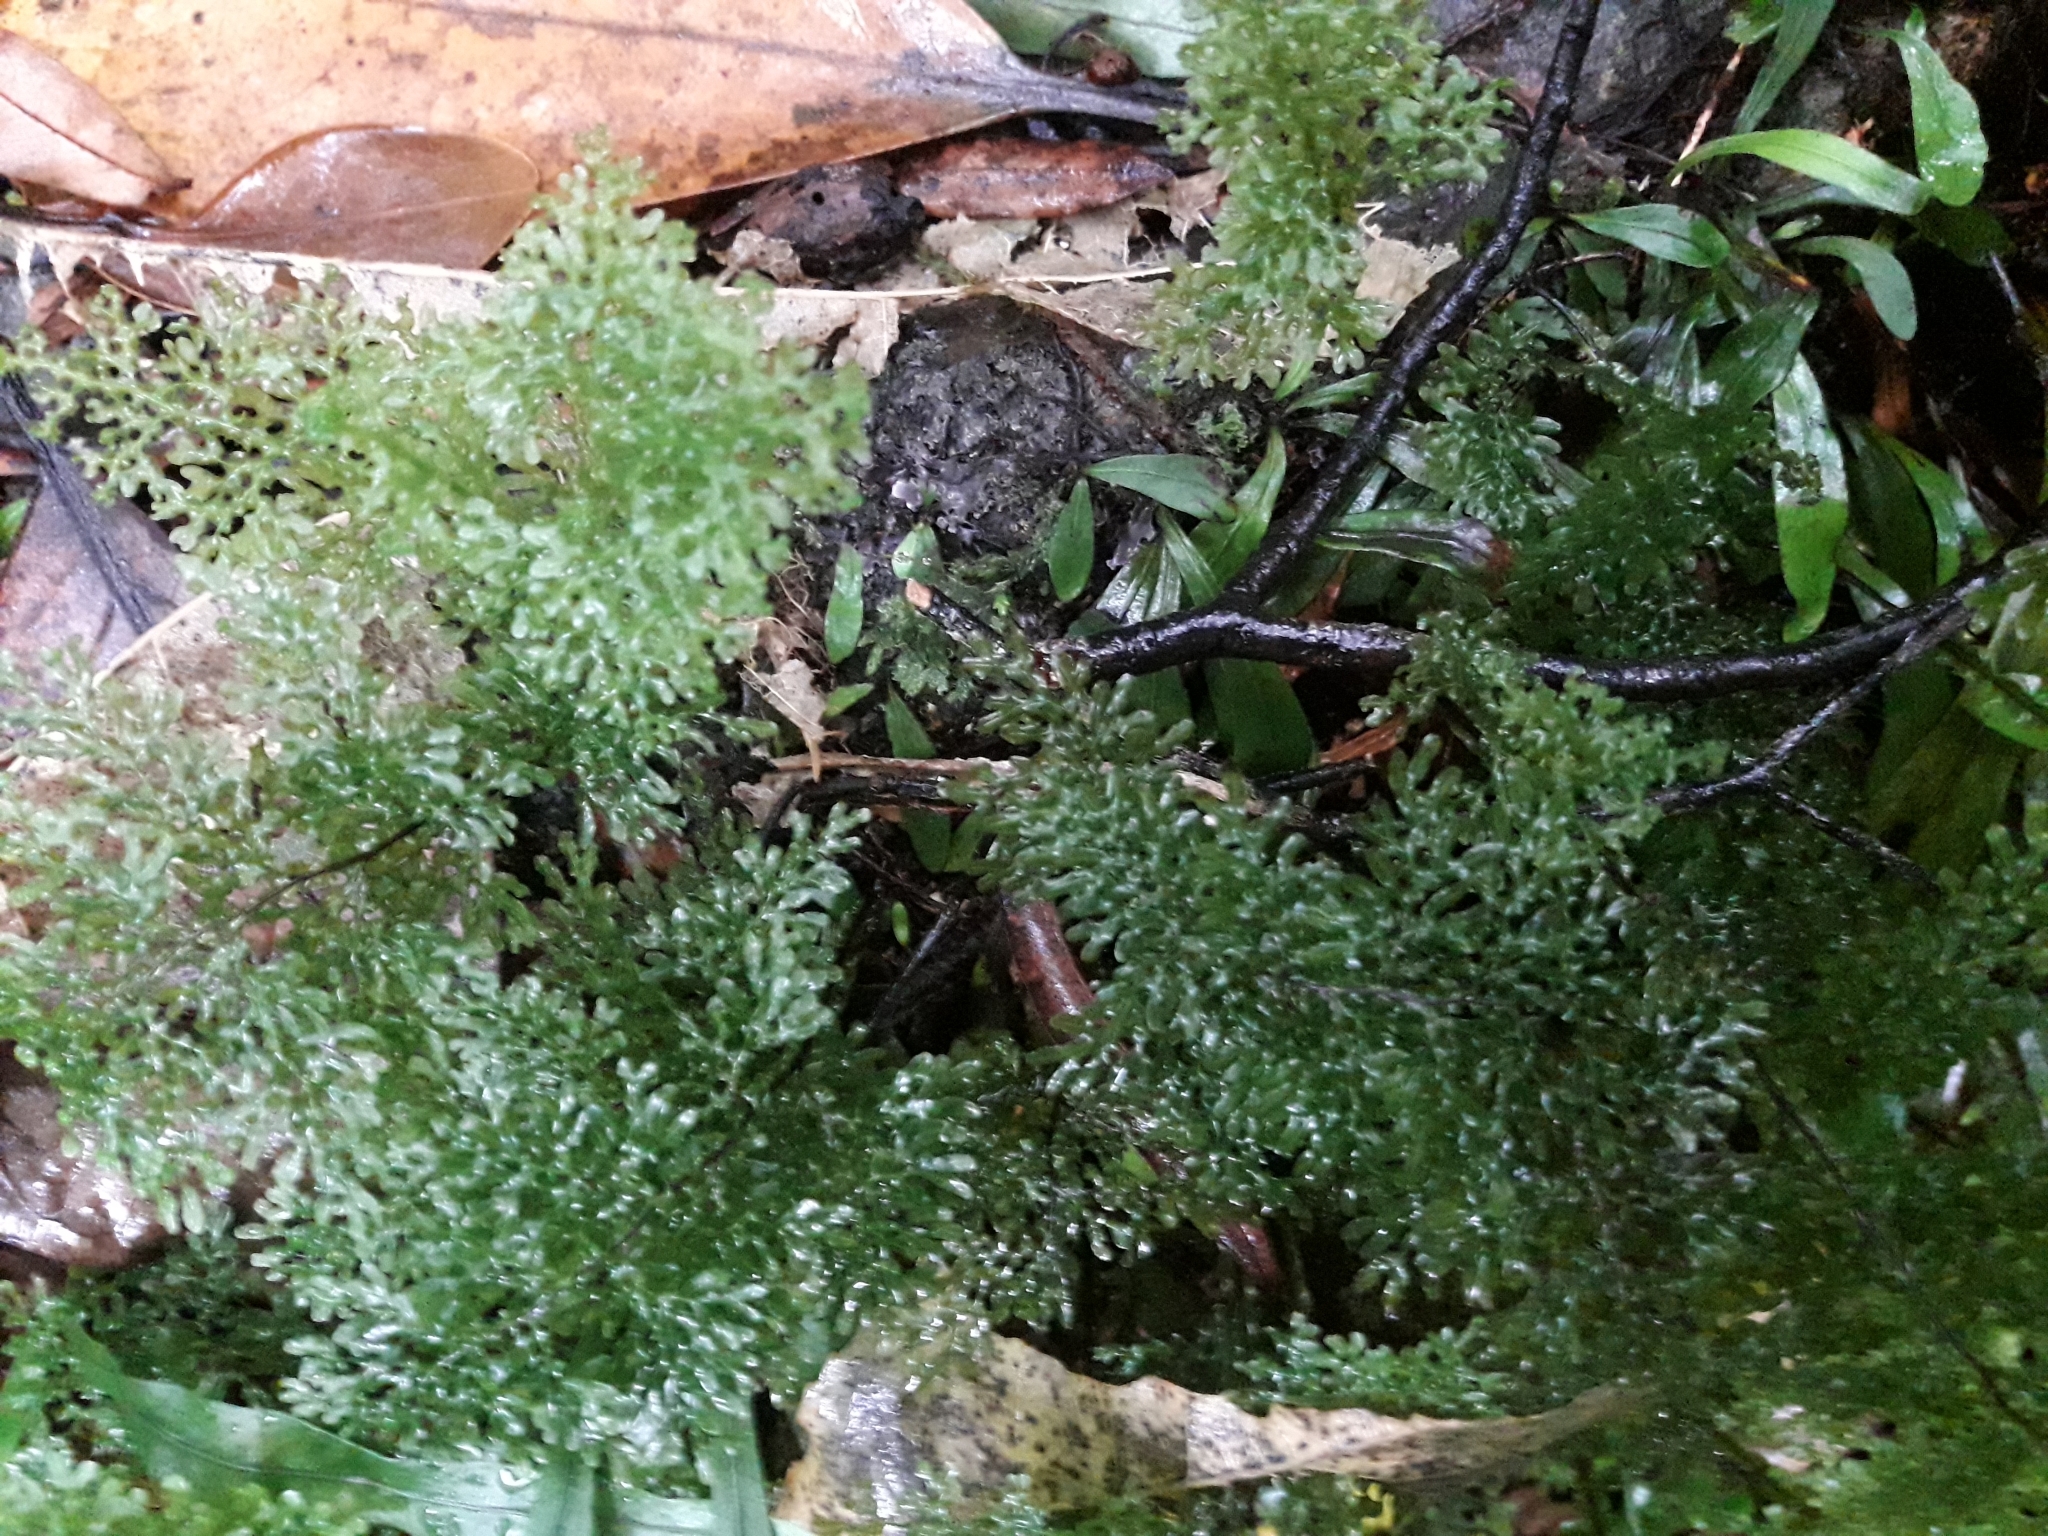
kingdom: Plantae
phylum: Tracheophyta
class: Polypodiopsida
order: Hymenophyllales
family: Hymenophyllaceae
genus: Hymenophyllum
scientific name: Hymenophyllum flexuosum
